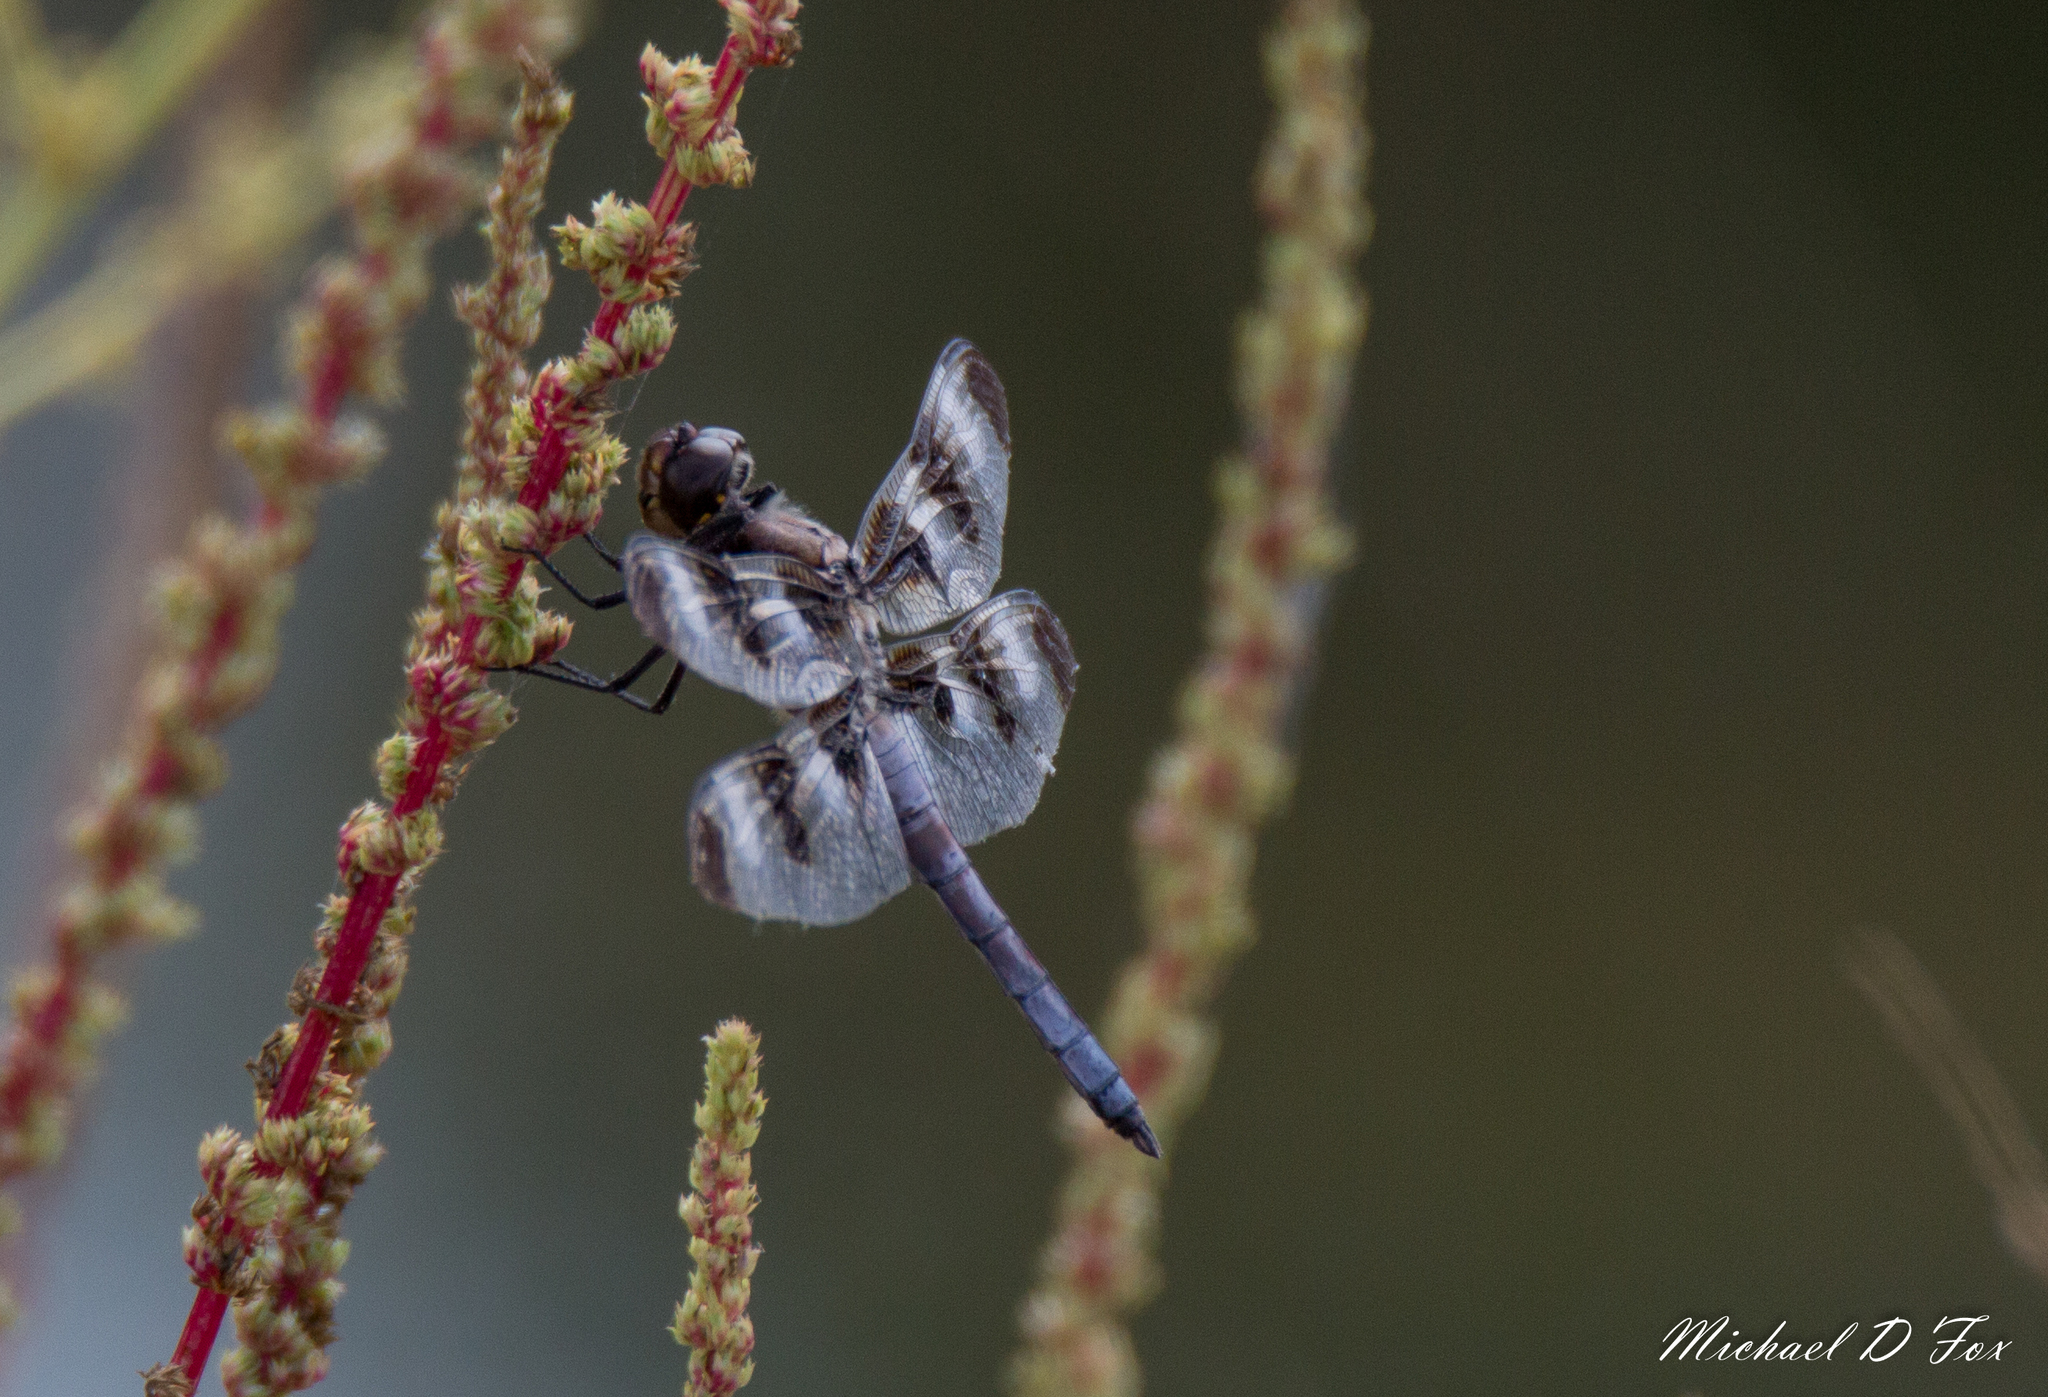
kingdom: Animalia
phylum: Arthropoda
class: Insecta
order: Odonata
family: Libellulidae
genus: Libellula
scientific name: Libellula pulchella
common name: Twelve-spotted skimmer
